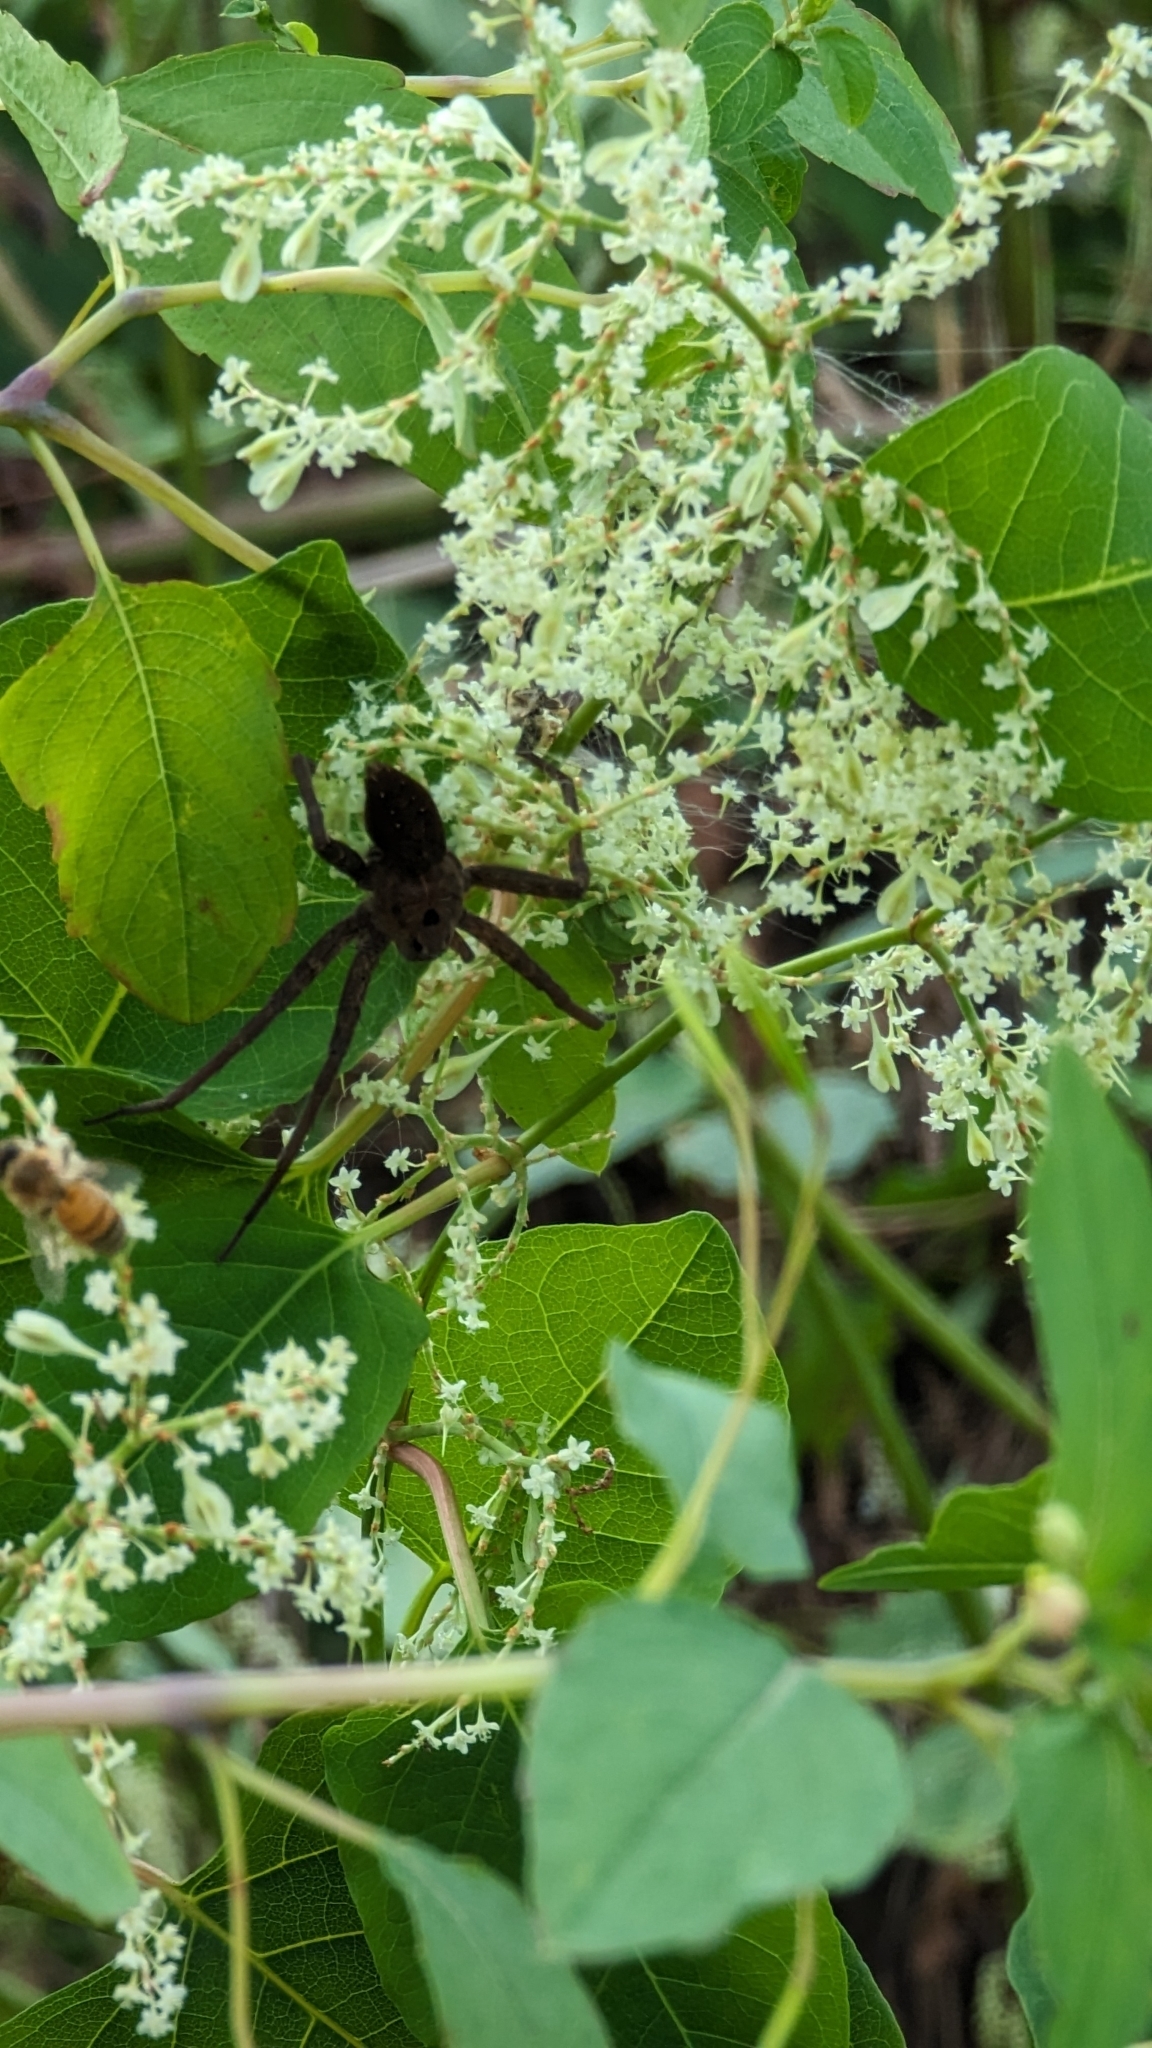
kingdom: Animalia
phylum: Arthropoda
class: Arachnida
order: Araneae
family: Pisauridae
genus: Dolomedes
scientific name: Dolomedes vittatus
